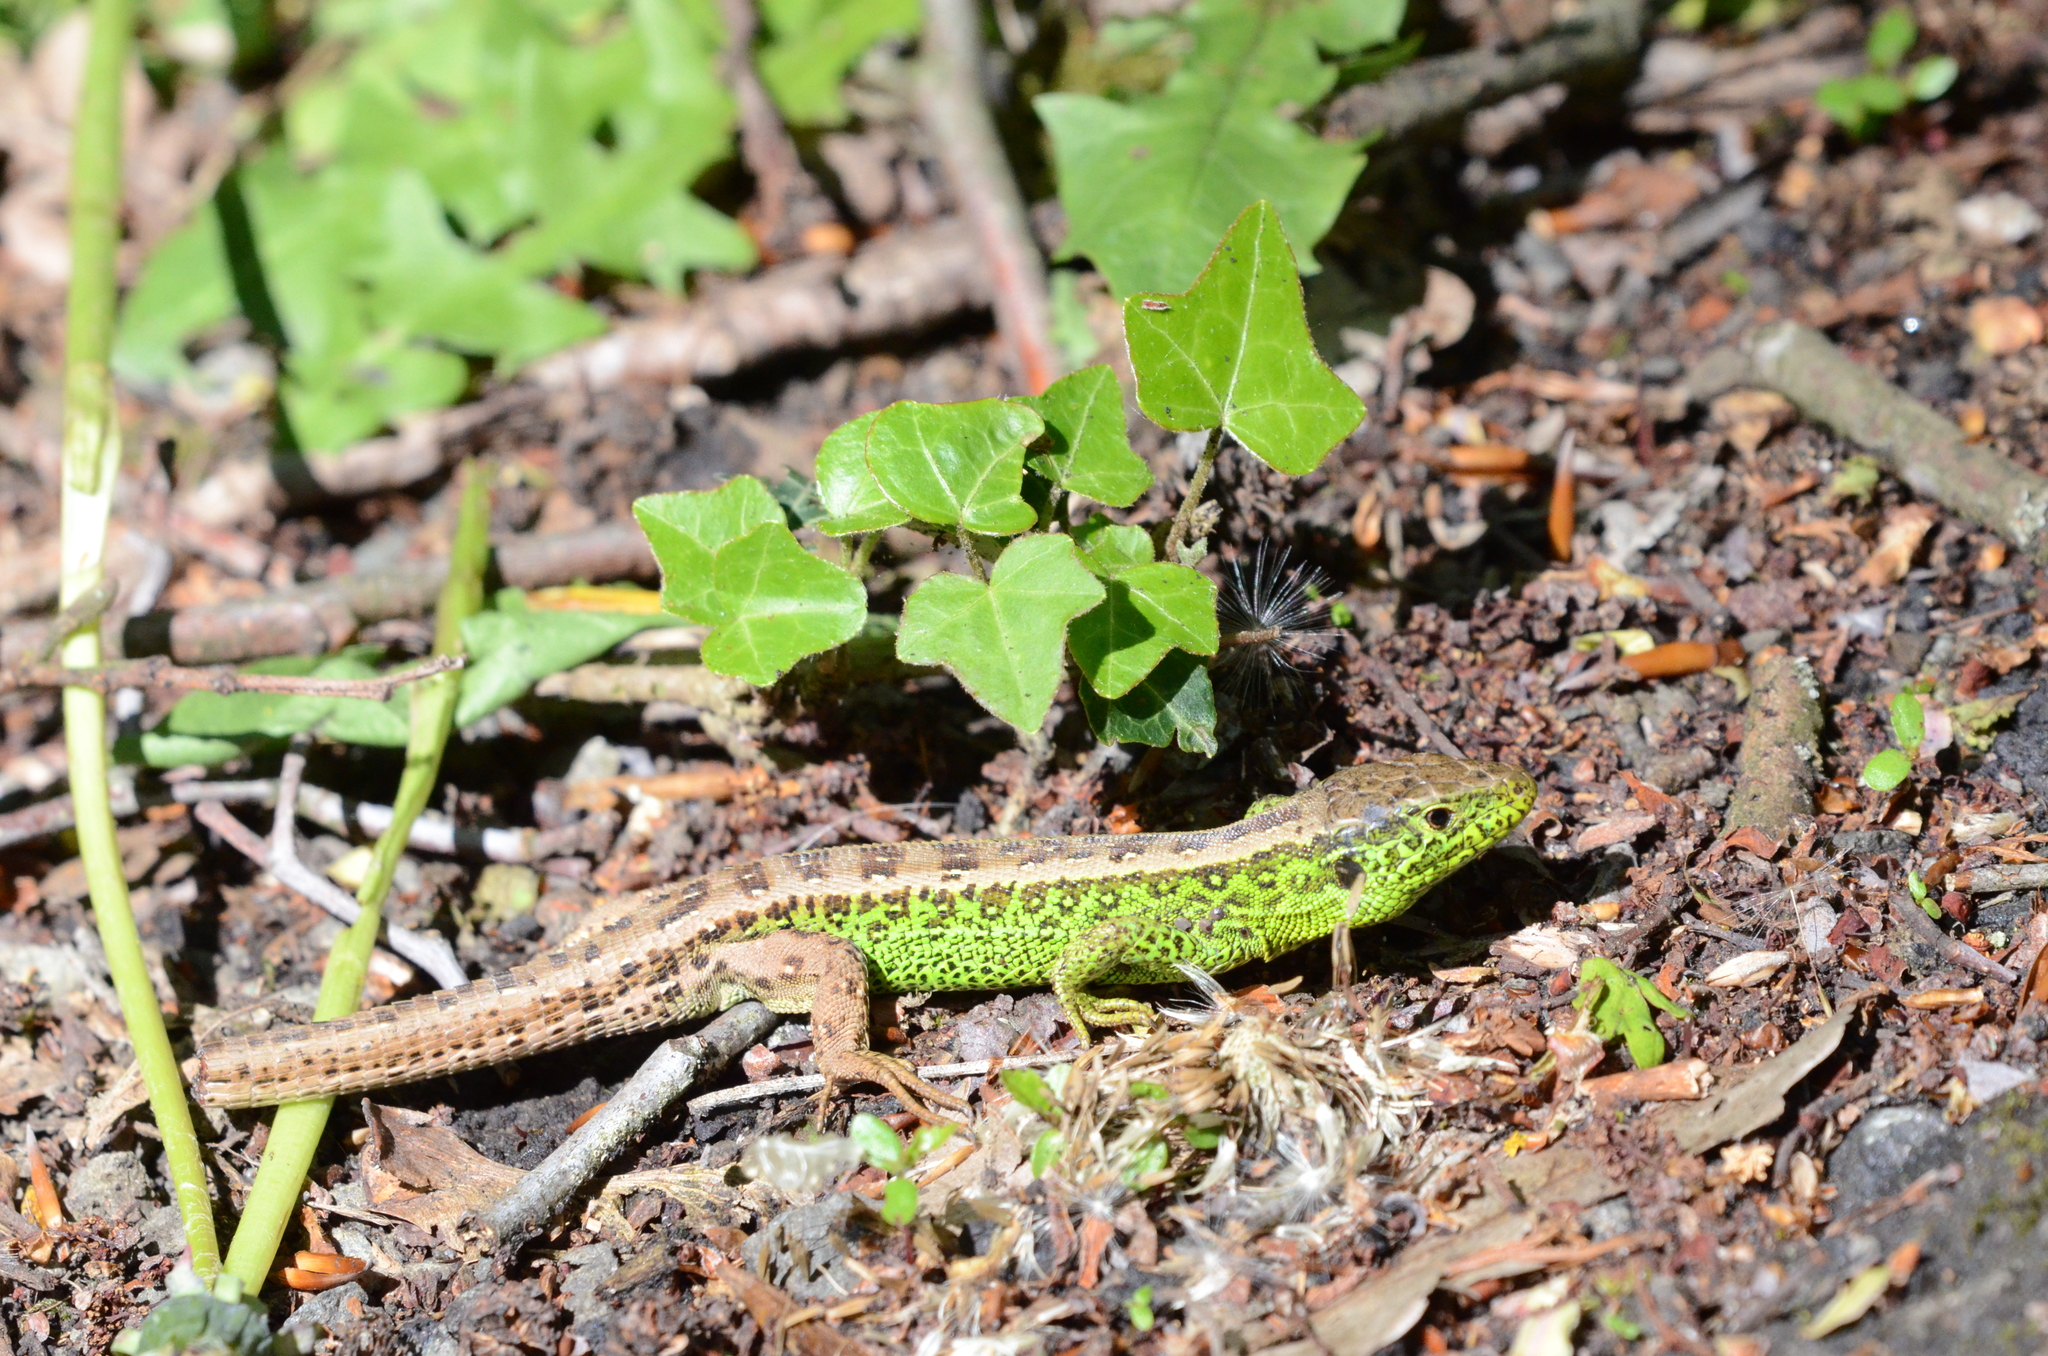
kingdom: Animalia
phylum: Chordata
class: Squamata
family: Lacertidae
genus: Lacerta
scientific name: Lacerta agilis
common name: Sand lizard
